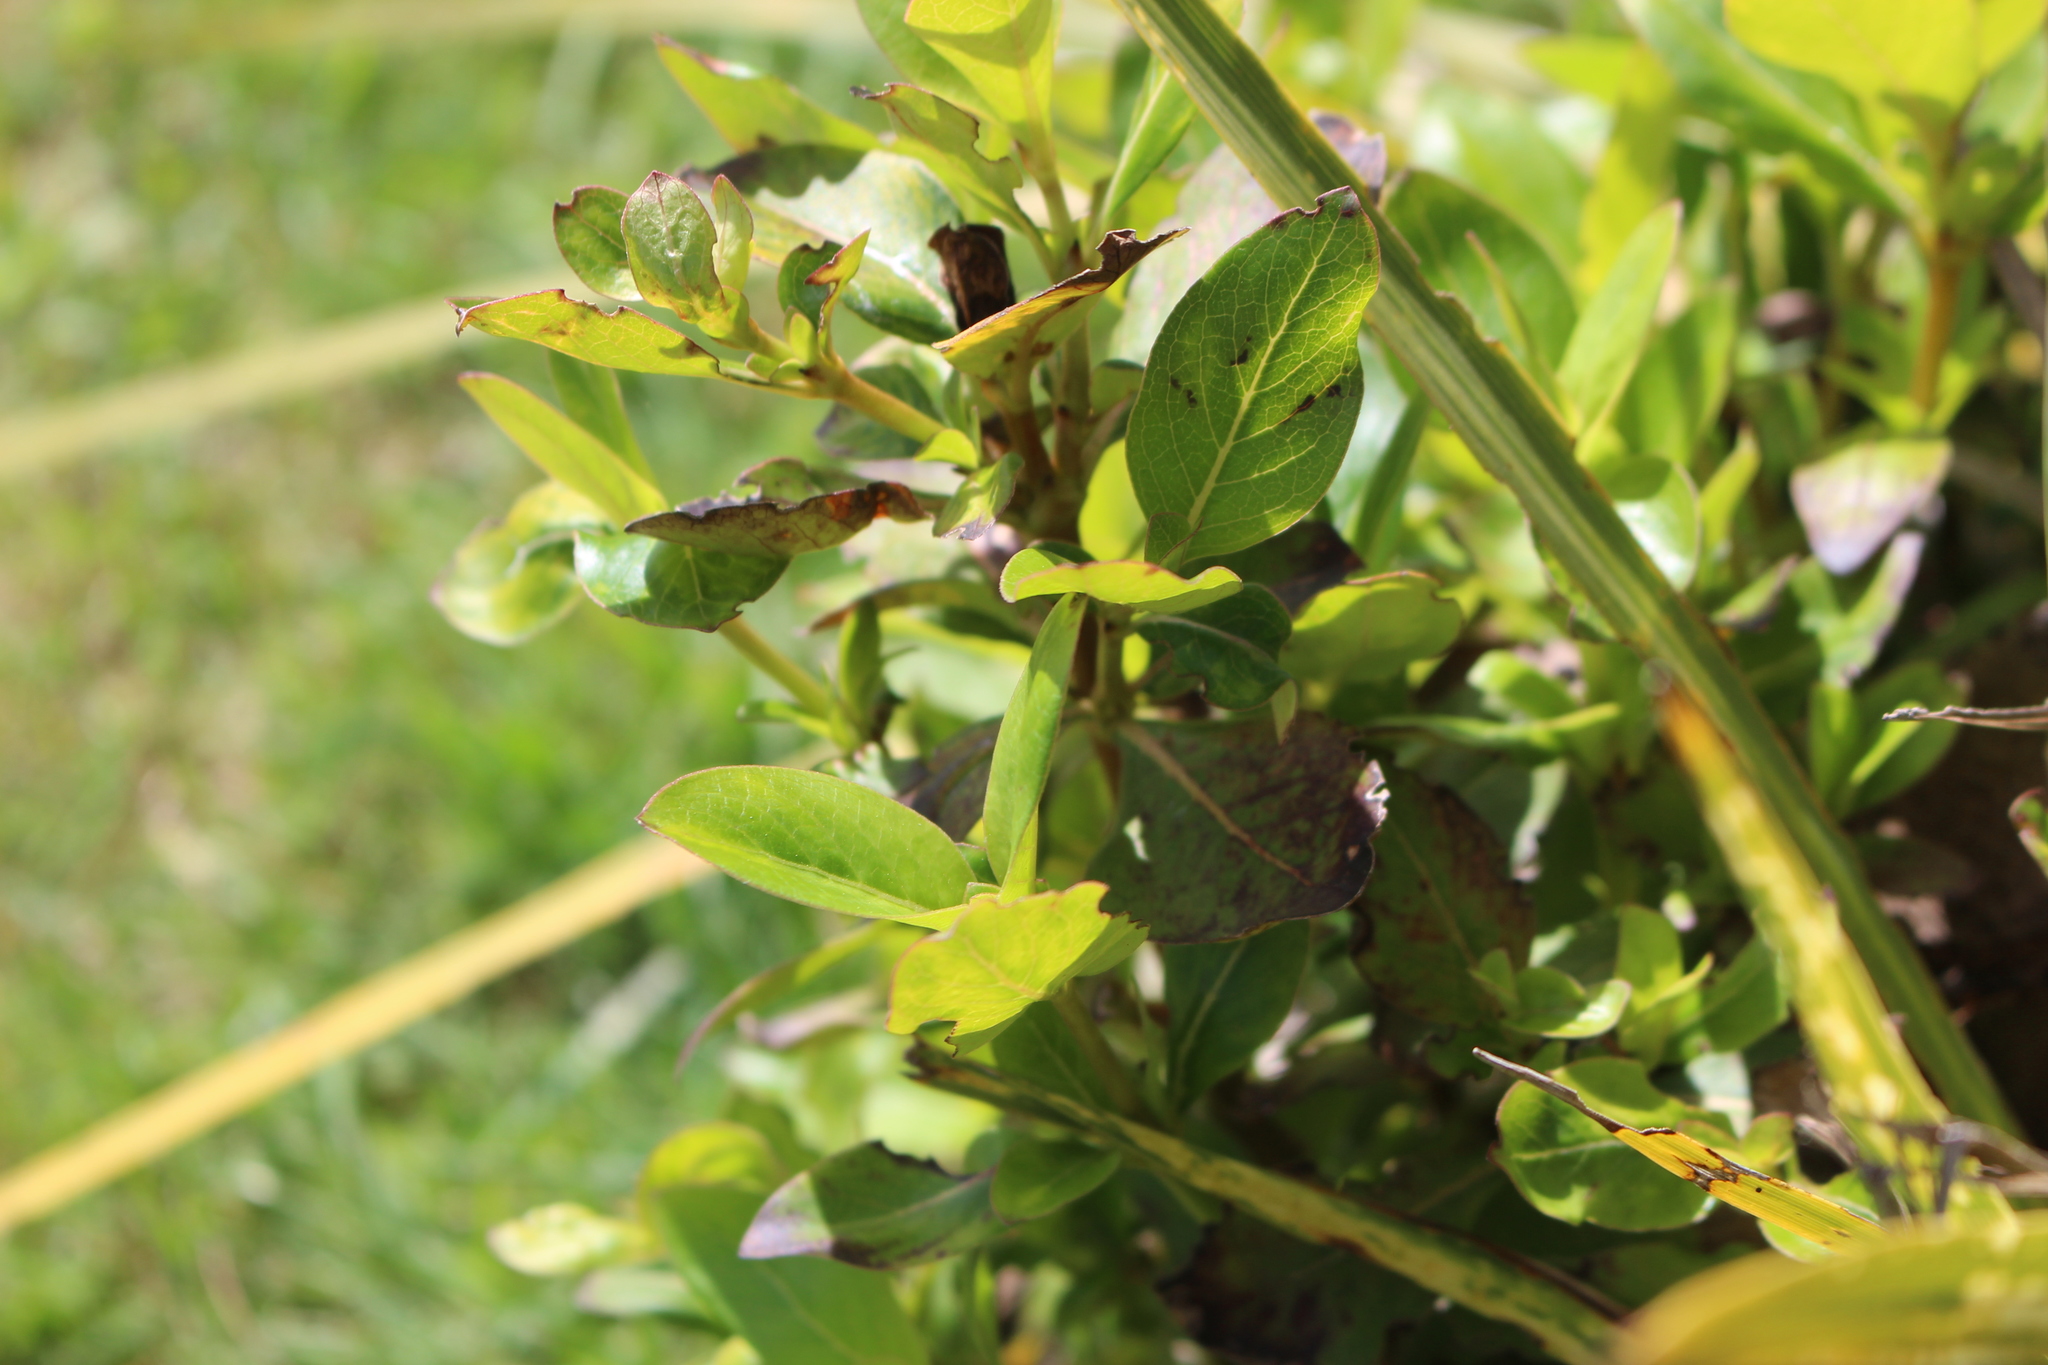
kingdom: Plantae
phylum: Tracheophyta
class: Magnoliopsida
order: Gentianales
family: Rubiaceae
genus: Coprosma
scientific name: Coprosma robusta
